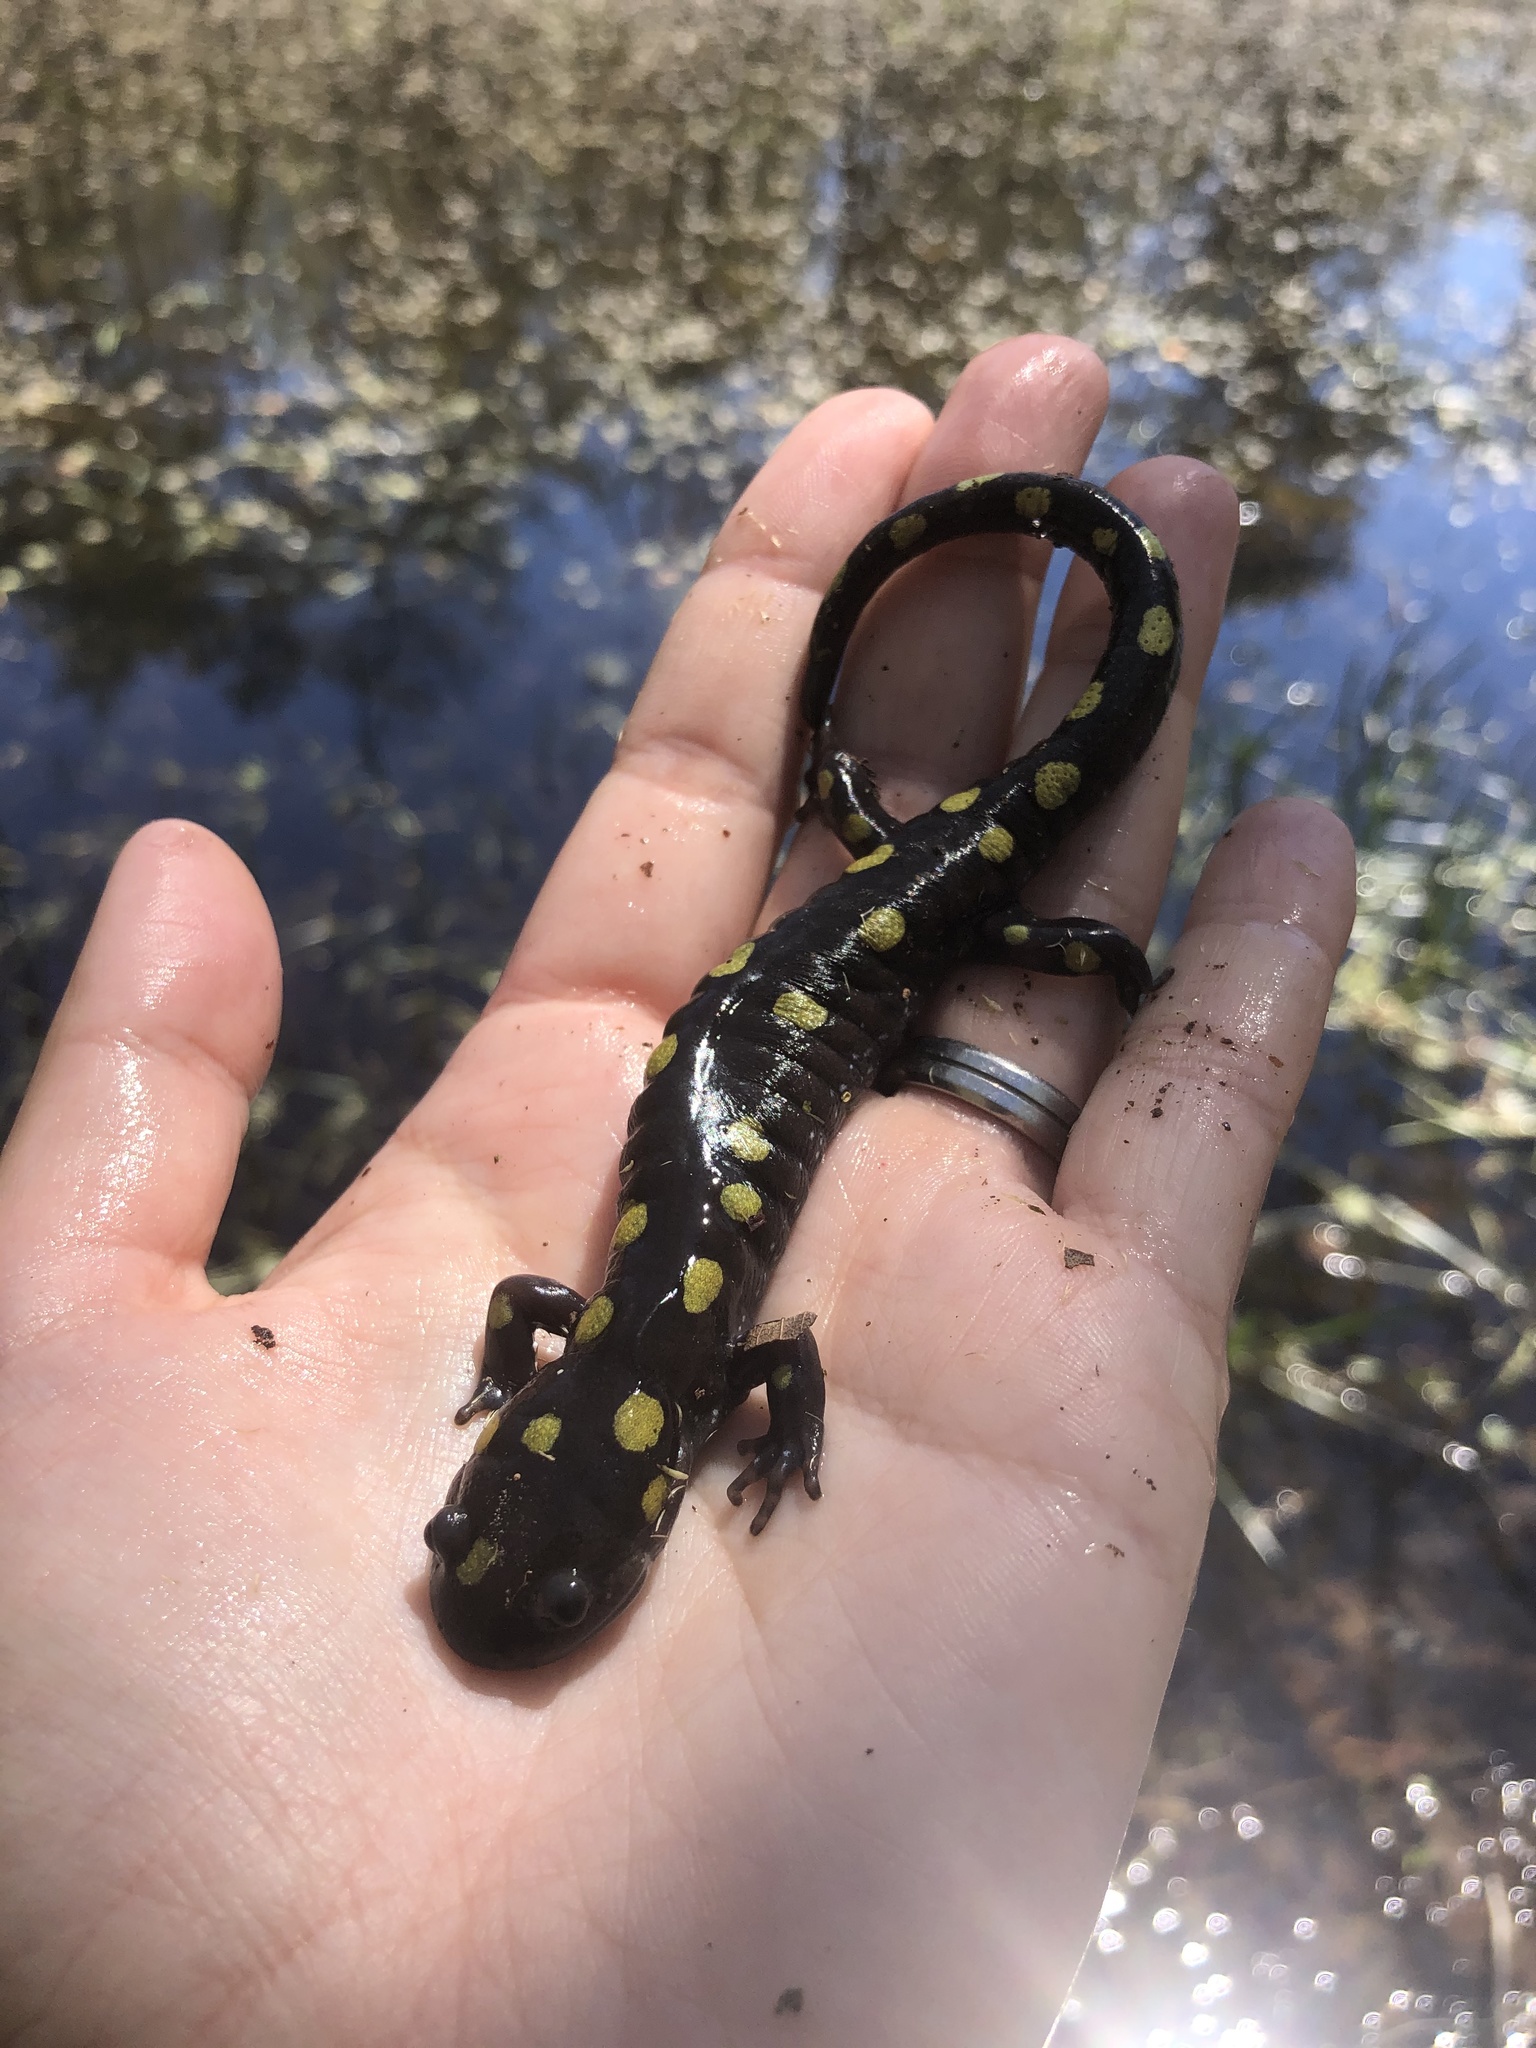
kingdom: Animalia
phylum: Chordata
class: Amphibia
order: Caudata
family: Ambystomatidae
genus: Ambystoma
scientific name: Ambystoma maculatum
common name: Spotted salamander
